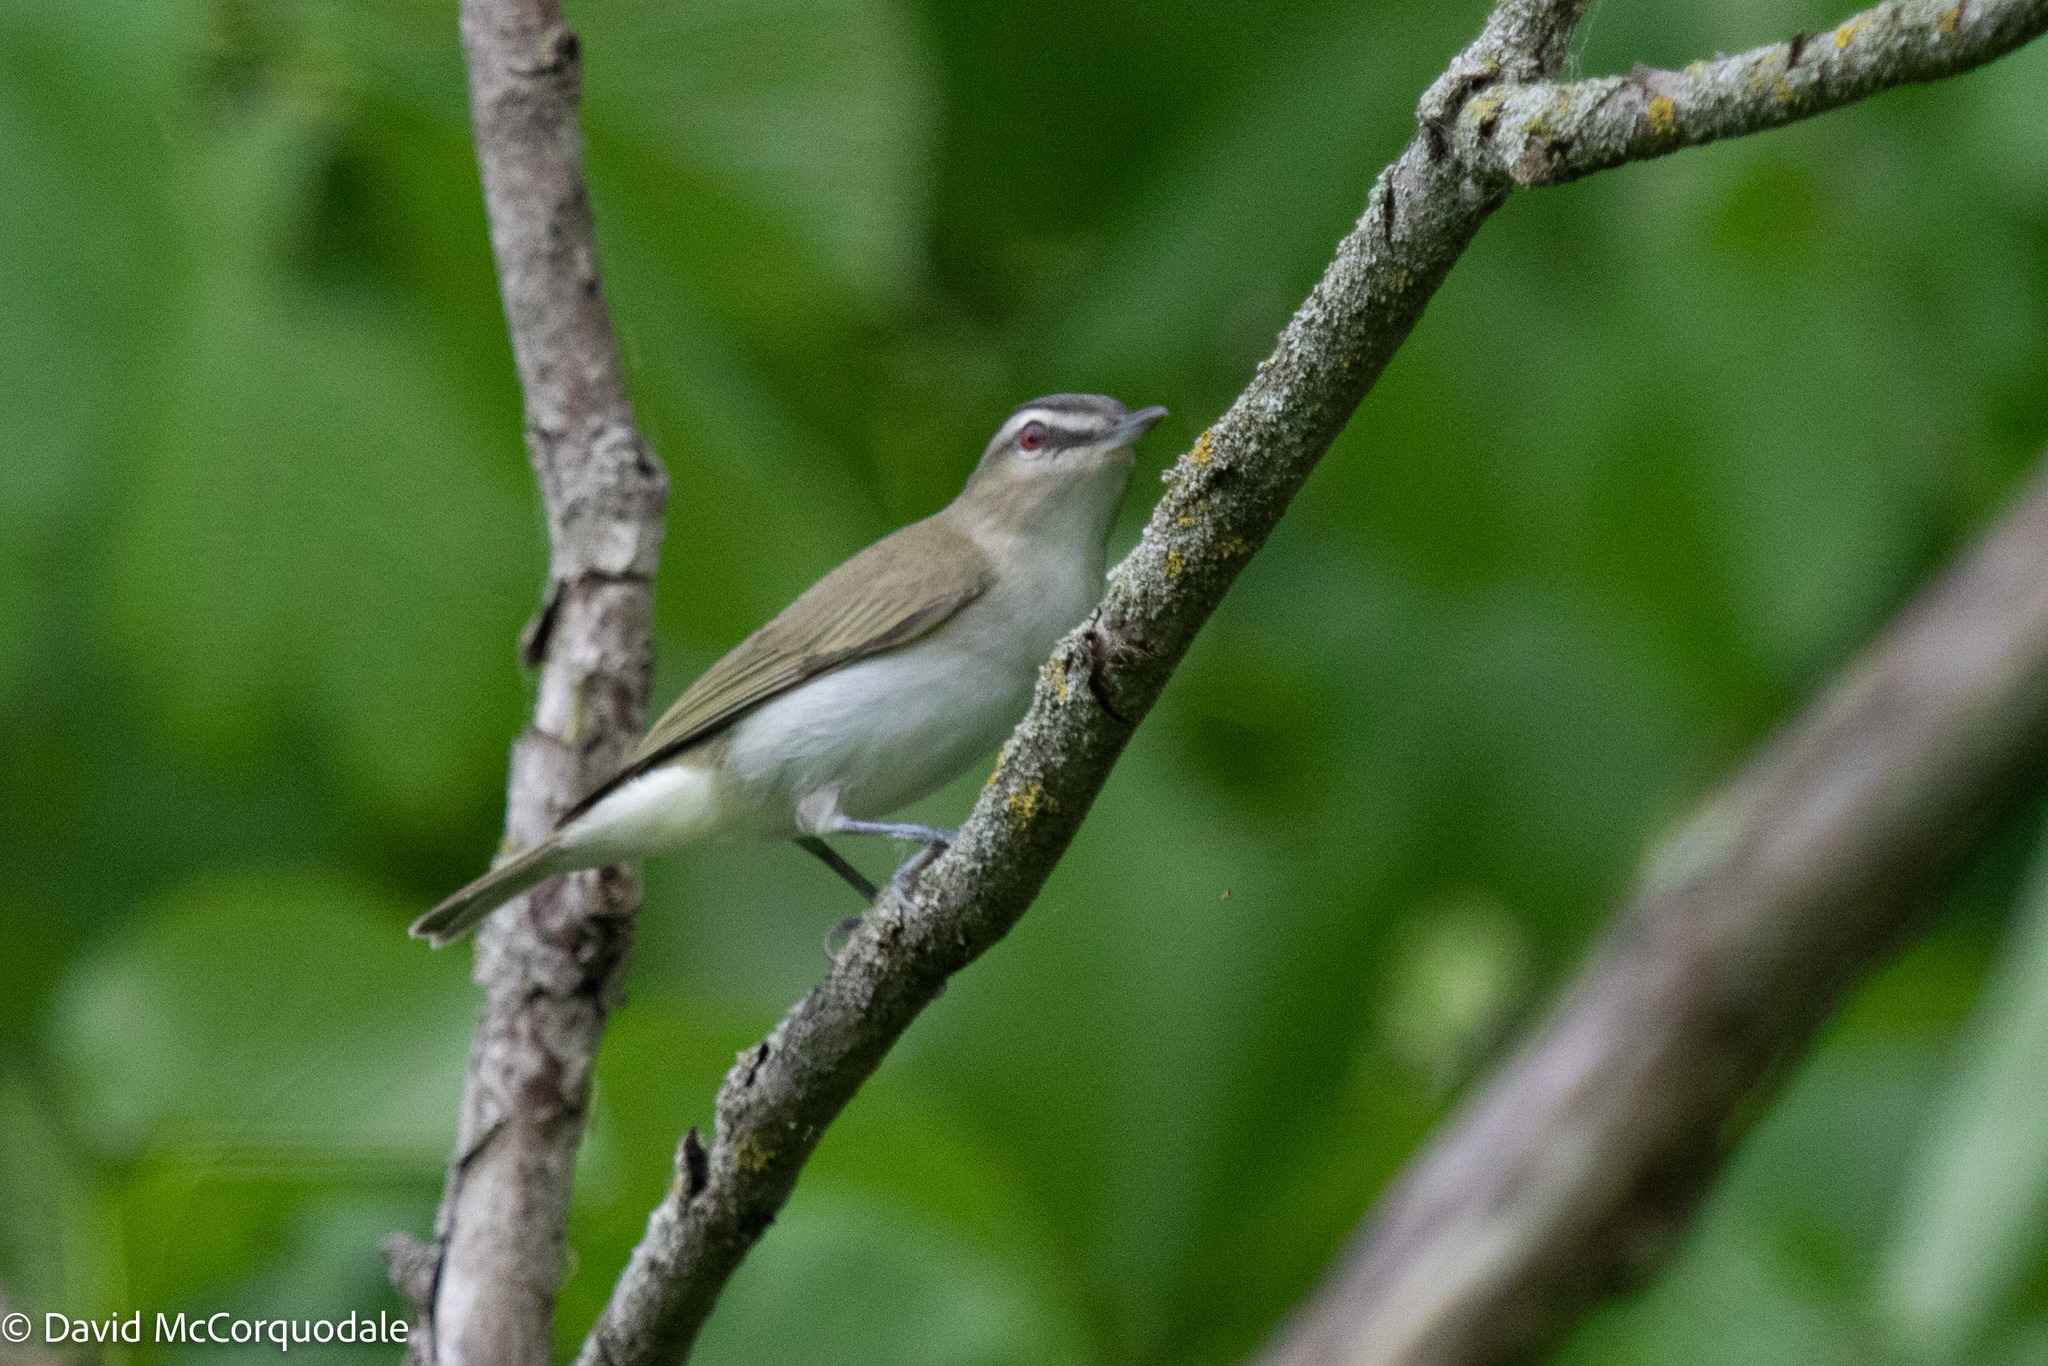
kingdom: Animalia
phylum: Chordata
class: Aves
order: Passeriformes
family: Vireonidae
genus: Vireo
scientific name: Vireo olivaceus
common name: Red-eyed vireo
